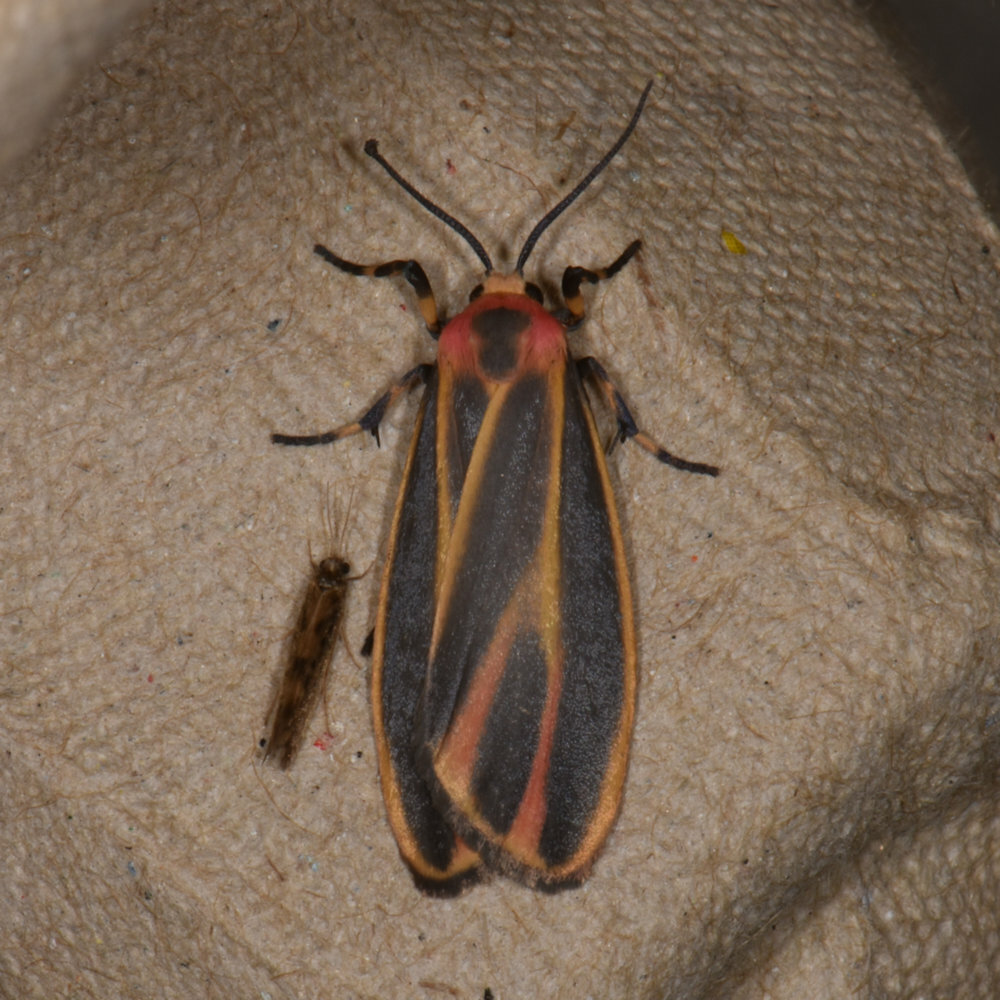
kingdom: Animalia
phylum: Arthropoda
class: Insecta
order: Lepidoptera
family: Erebidae
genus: Hypoprepia
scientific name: Hypoprepia fucosa
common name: Painted lichen moth
